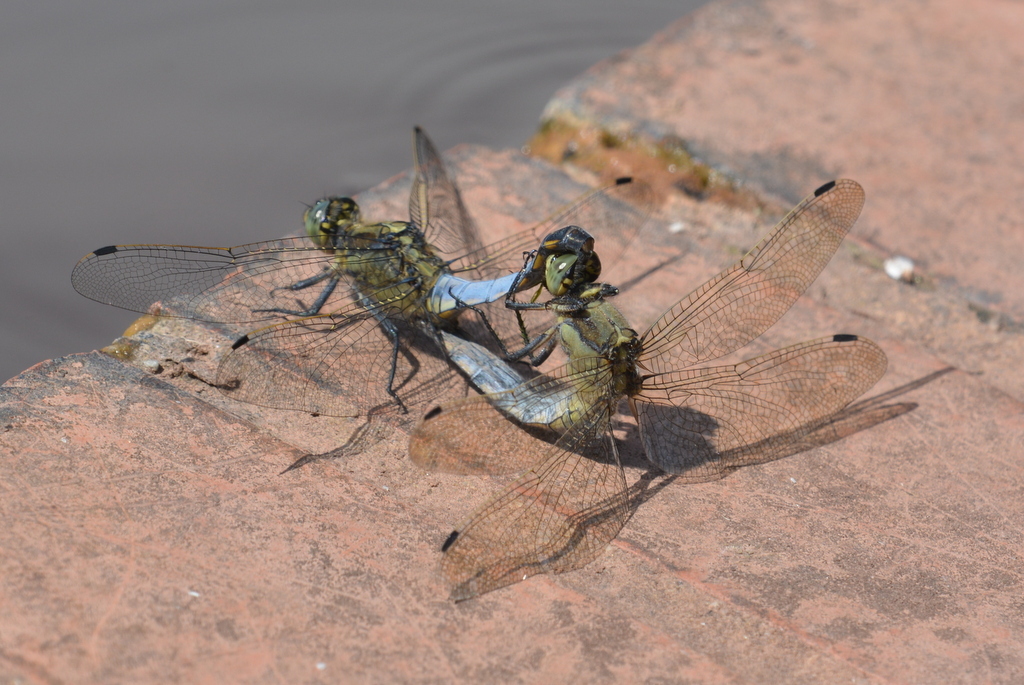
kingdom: Animalia
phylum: Arthropoda
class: Insecta
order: Odonata
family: Libellulidae
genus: Orthetrum
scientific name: Orthetrum cancellatum
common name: Black-tailed skimmer
